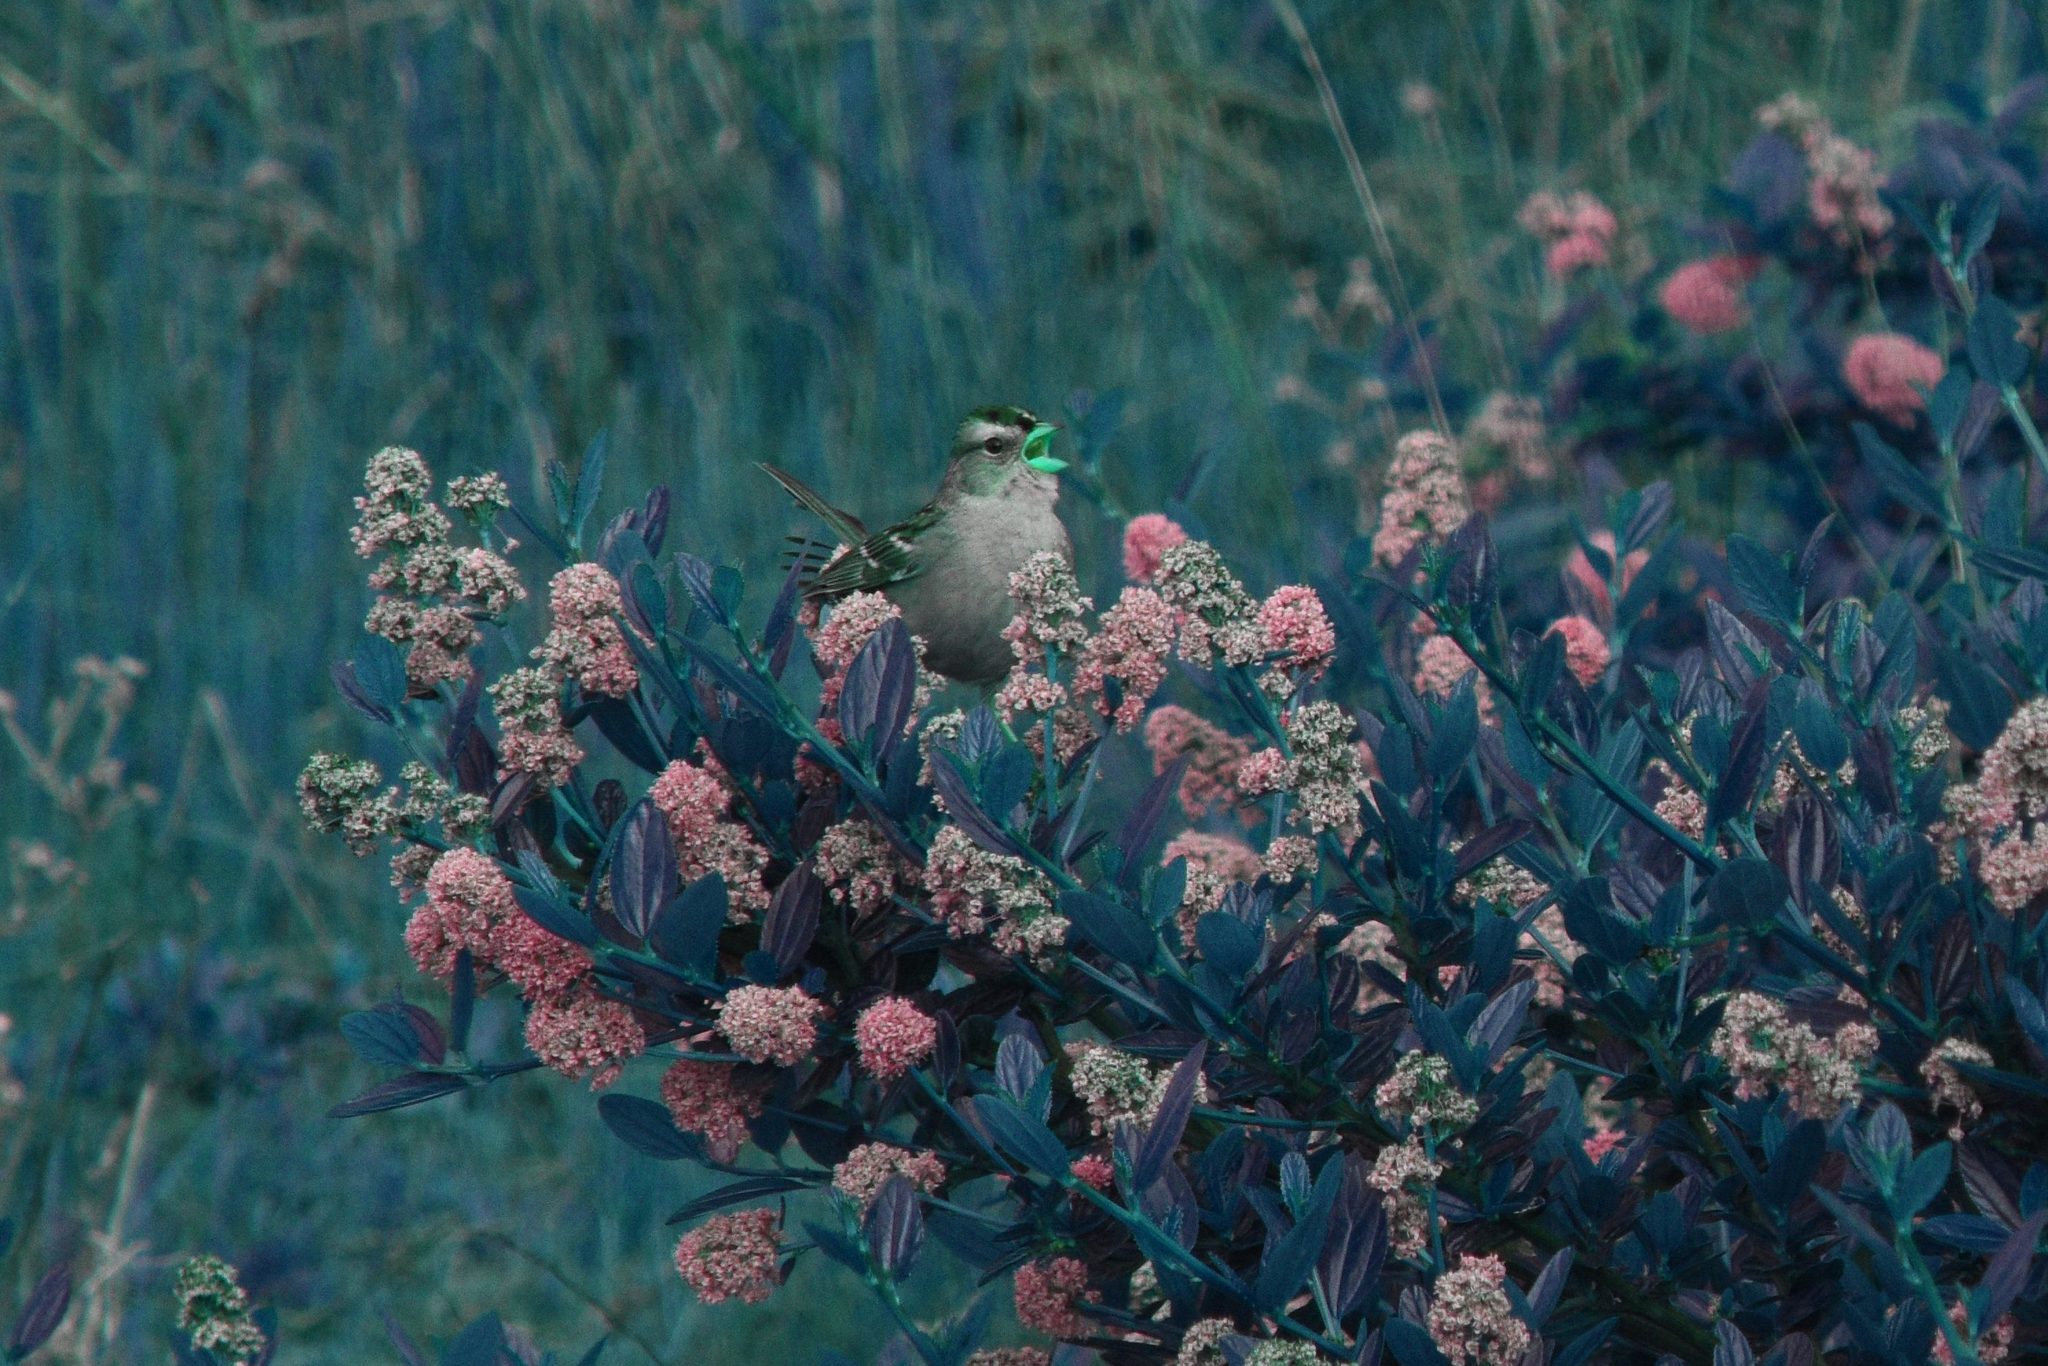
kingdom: Animalia
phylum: Chordata
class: Aves
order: Passeriformes
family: Passerellidae
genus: Zonotrichia
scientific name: Zonotrichia leucophrys
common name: White-crowned sparrow
